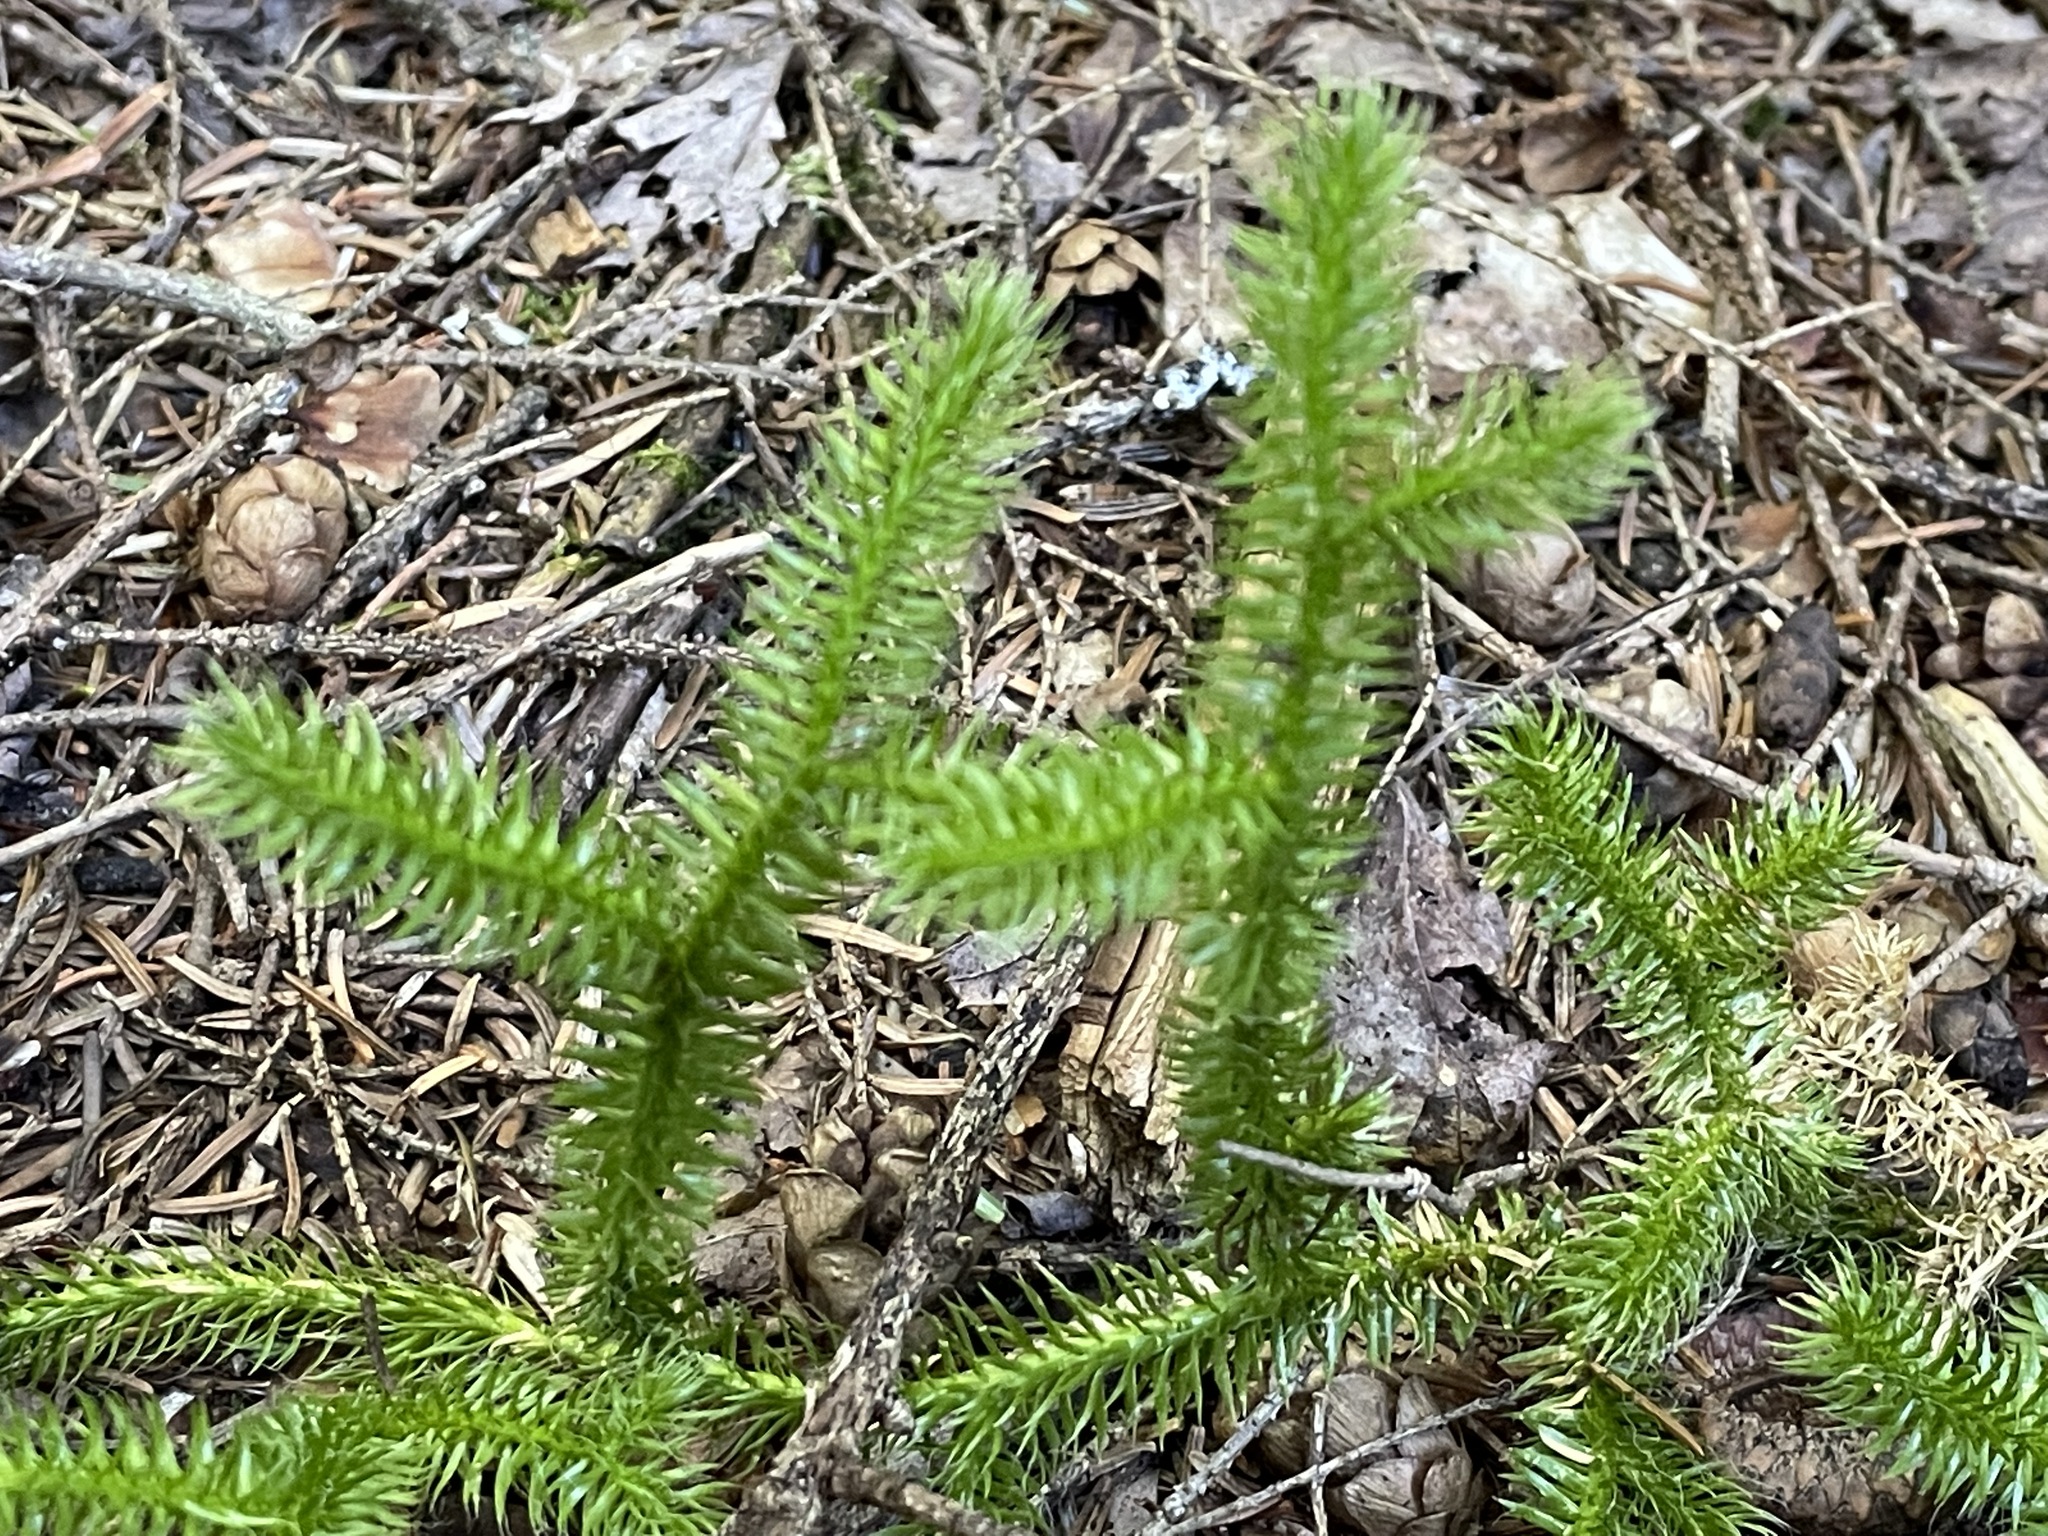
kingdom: Plantae
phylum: Tracheophyta
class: Lycopodiopsida
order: Lycopodiales
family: Lycopodiaceae
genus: Lycopodium
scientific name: Lycopodium clavatum
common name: Stag's-horn clubmoss
